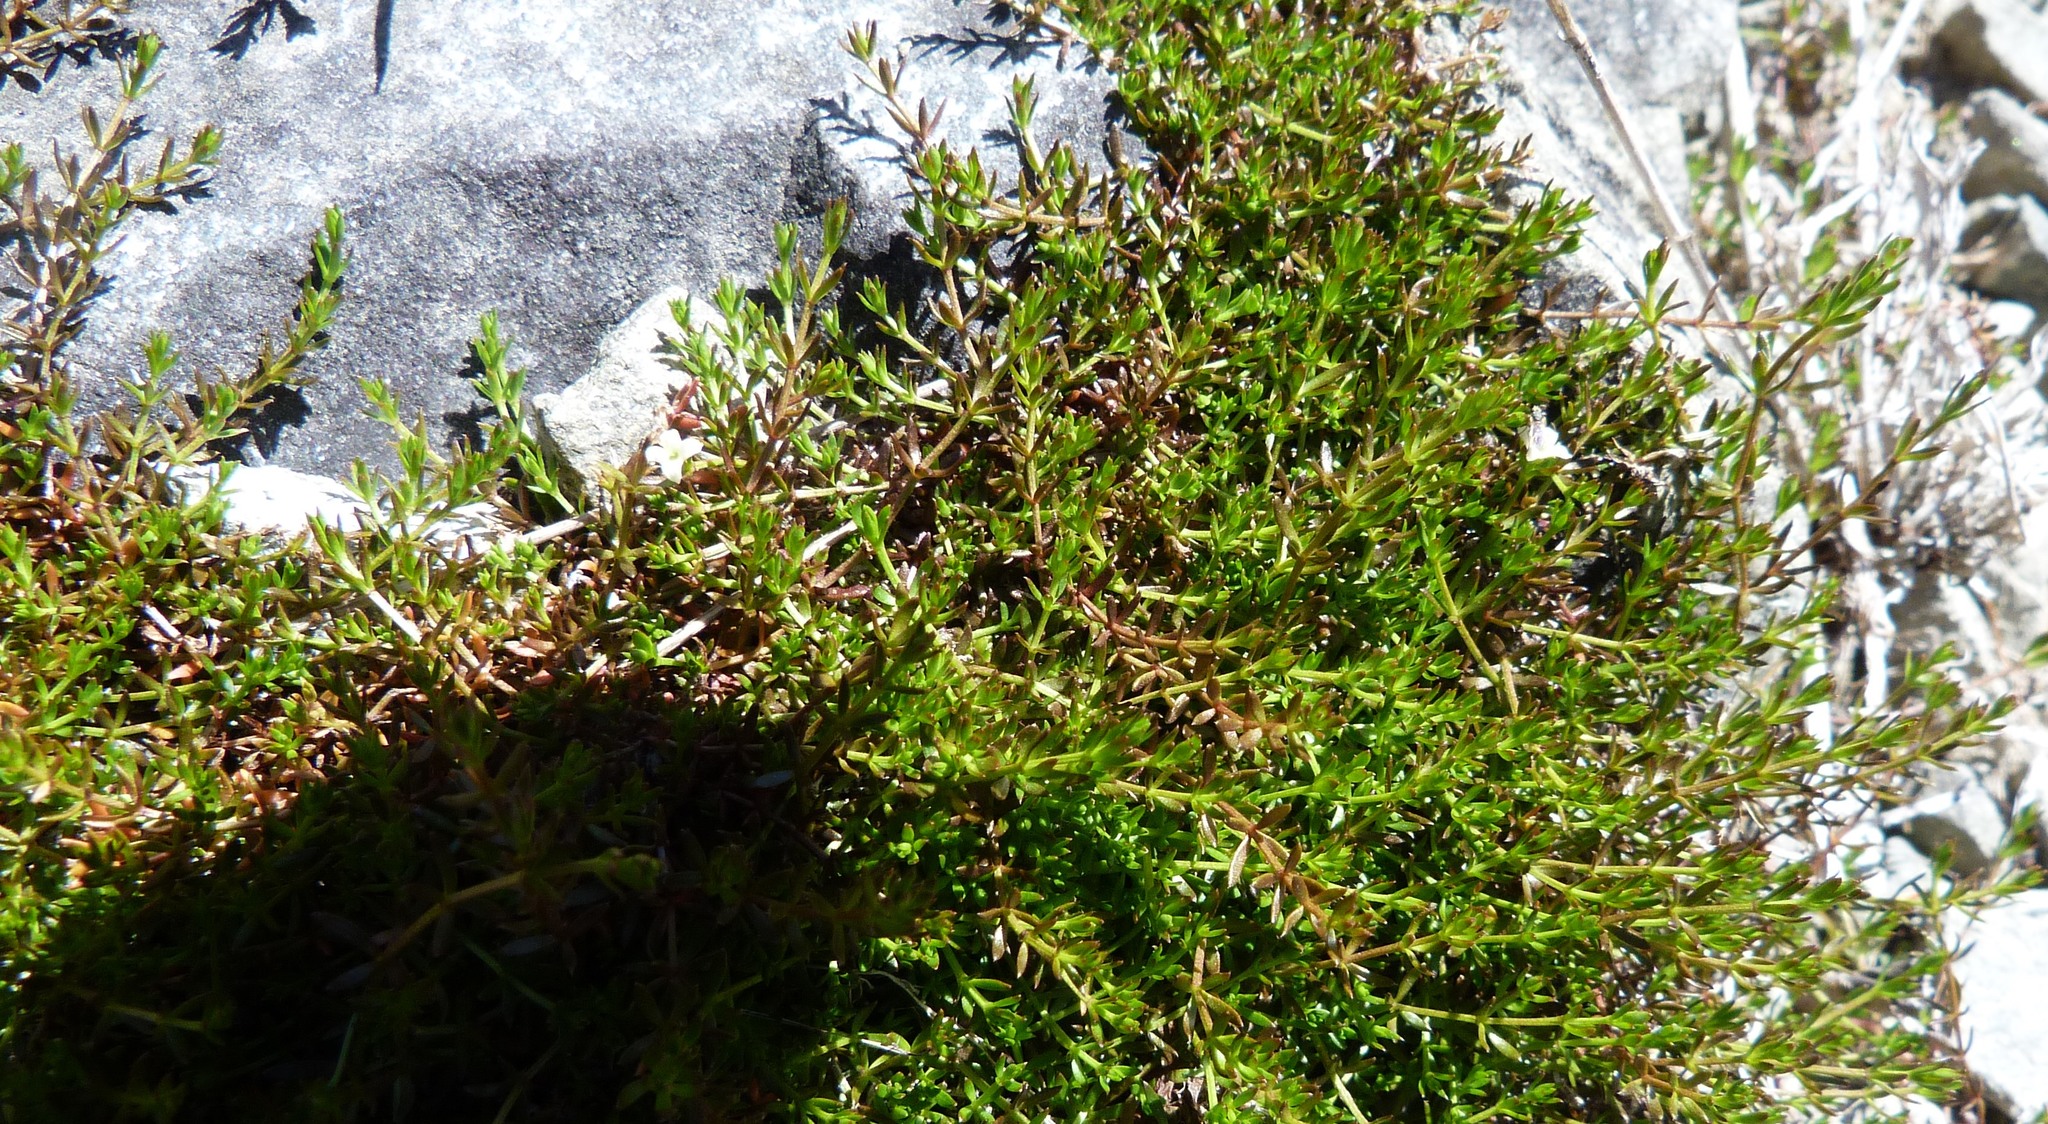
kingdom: Plantae
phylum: Tracheophyta
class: Magnoliopsida
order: Gentianales
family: Rubiaceae
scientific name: Rubiaceae
